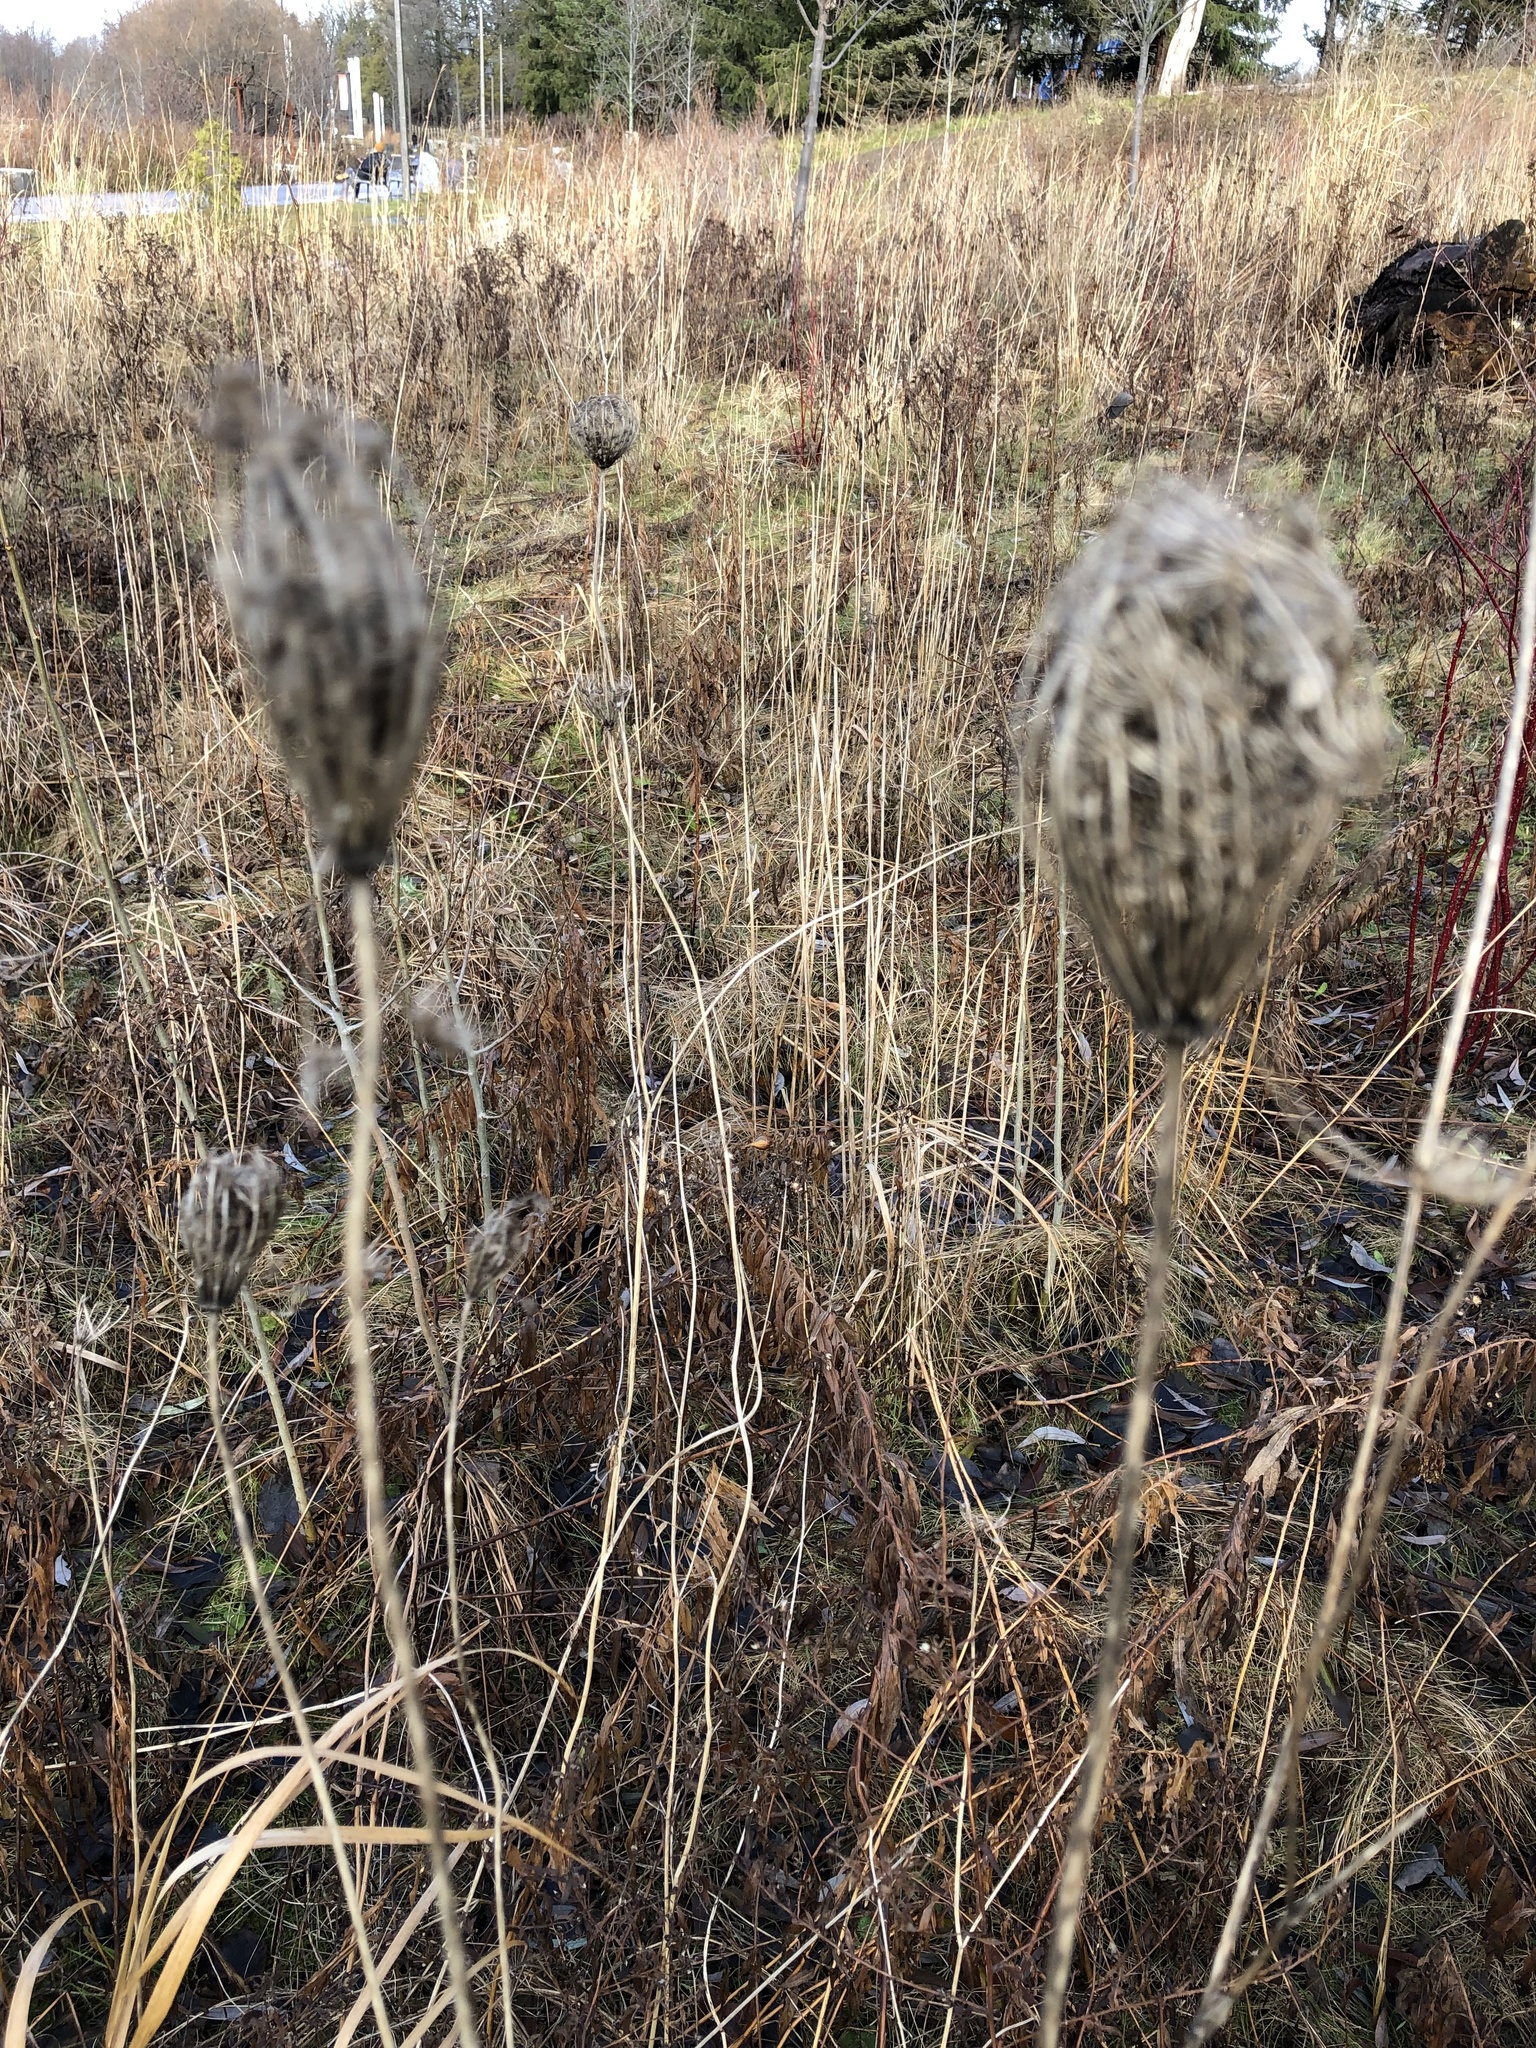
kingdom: Plantae
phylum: Tracheophyta
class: Magnoliopsida
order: Apiales
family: Apiaceae
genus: Daucus
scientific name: Daucus carota
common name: Wild carrot
